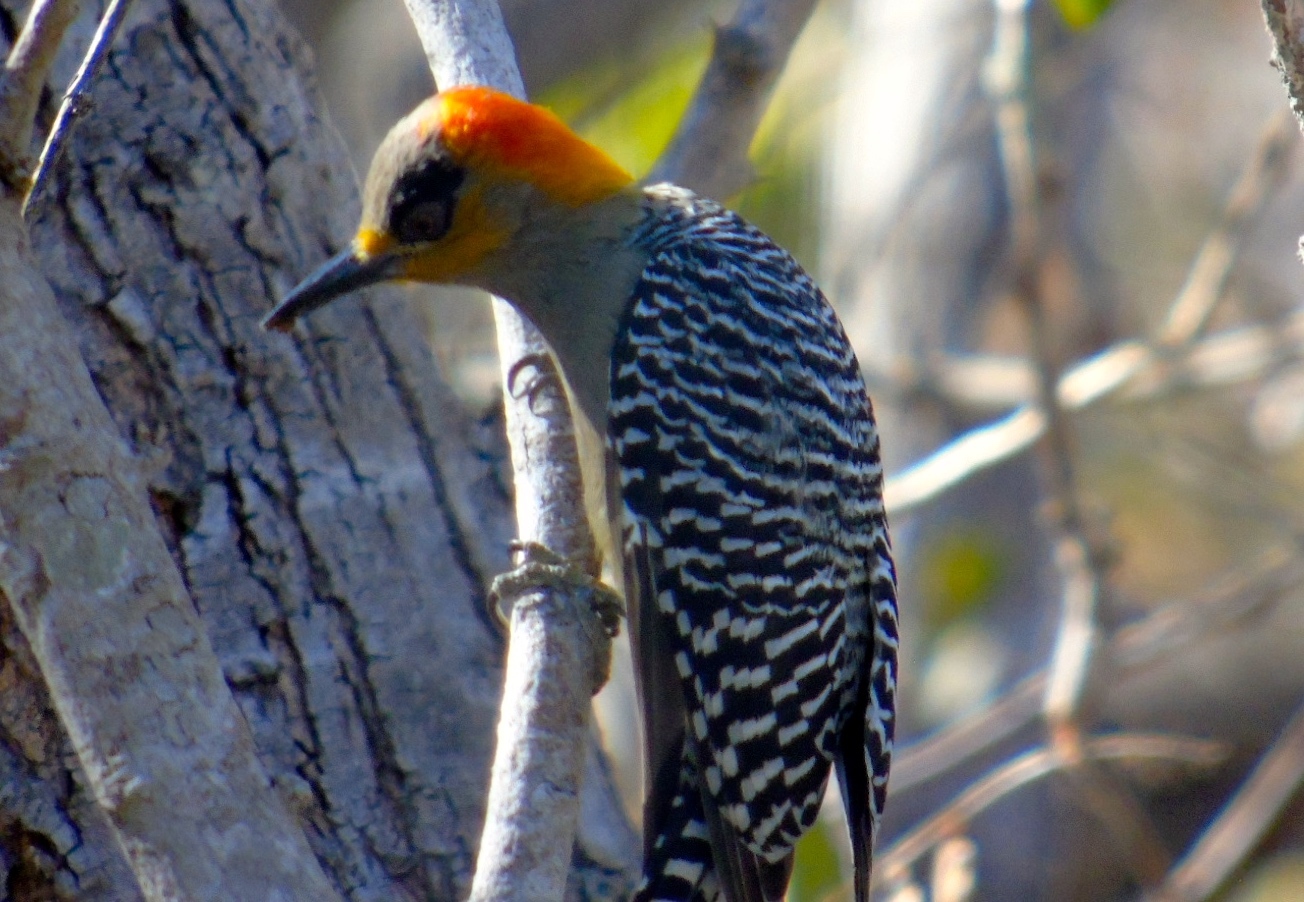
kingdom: Animalia
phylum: Chordata
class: Aves
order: Piciformes
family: Picidae
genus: Melanerpes
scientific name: Melanerpes chrysogenys
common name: Golden-cheeked woodpecker
